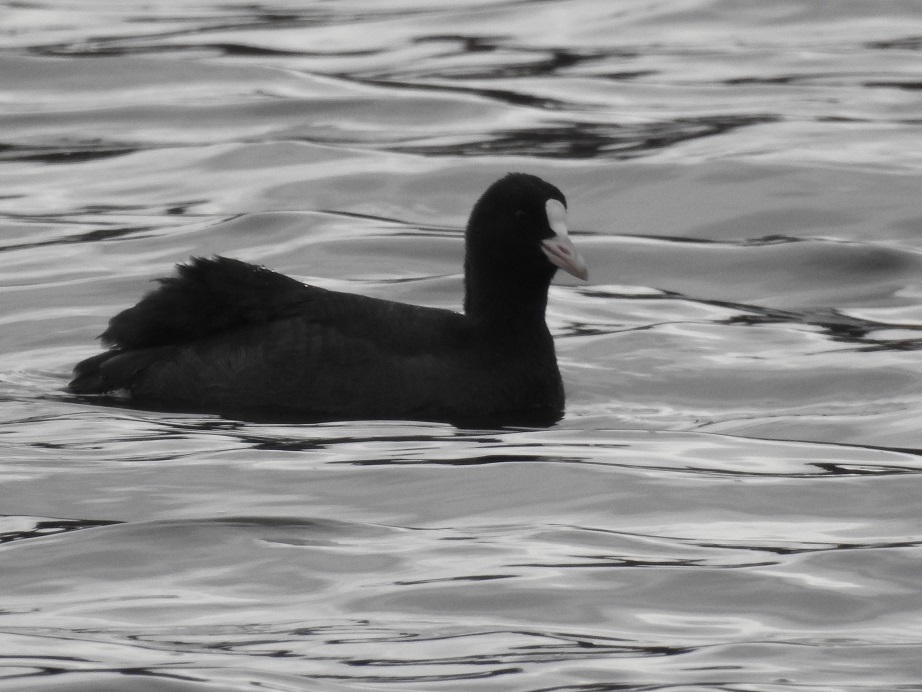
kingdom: Animalia
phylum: Chordata
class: Aves
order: Gruiformes
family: Rallidae
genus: Fulica
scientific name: Fulica atra
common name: Eurasian coot
